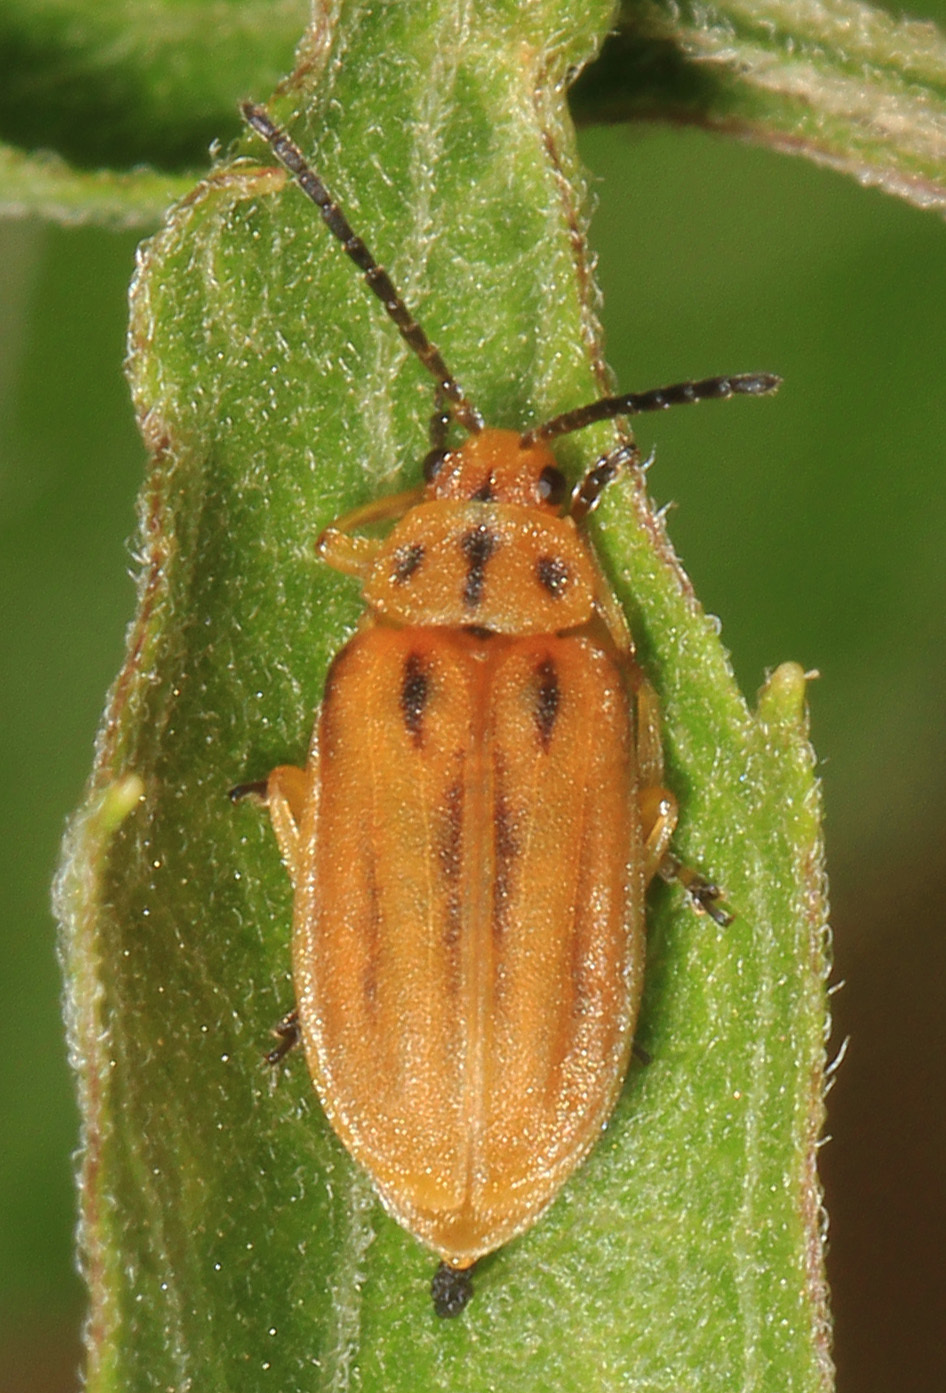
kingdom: Animalia
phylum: Arthropoda
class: Insecta
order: Coleoptera
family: Chrysomelidae
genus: Ophraella
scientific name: Ophraella notata
